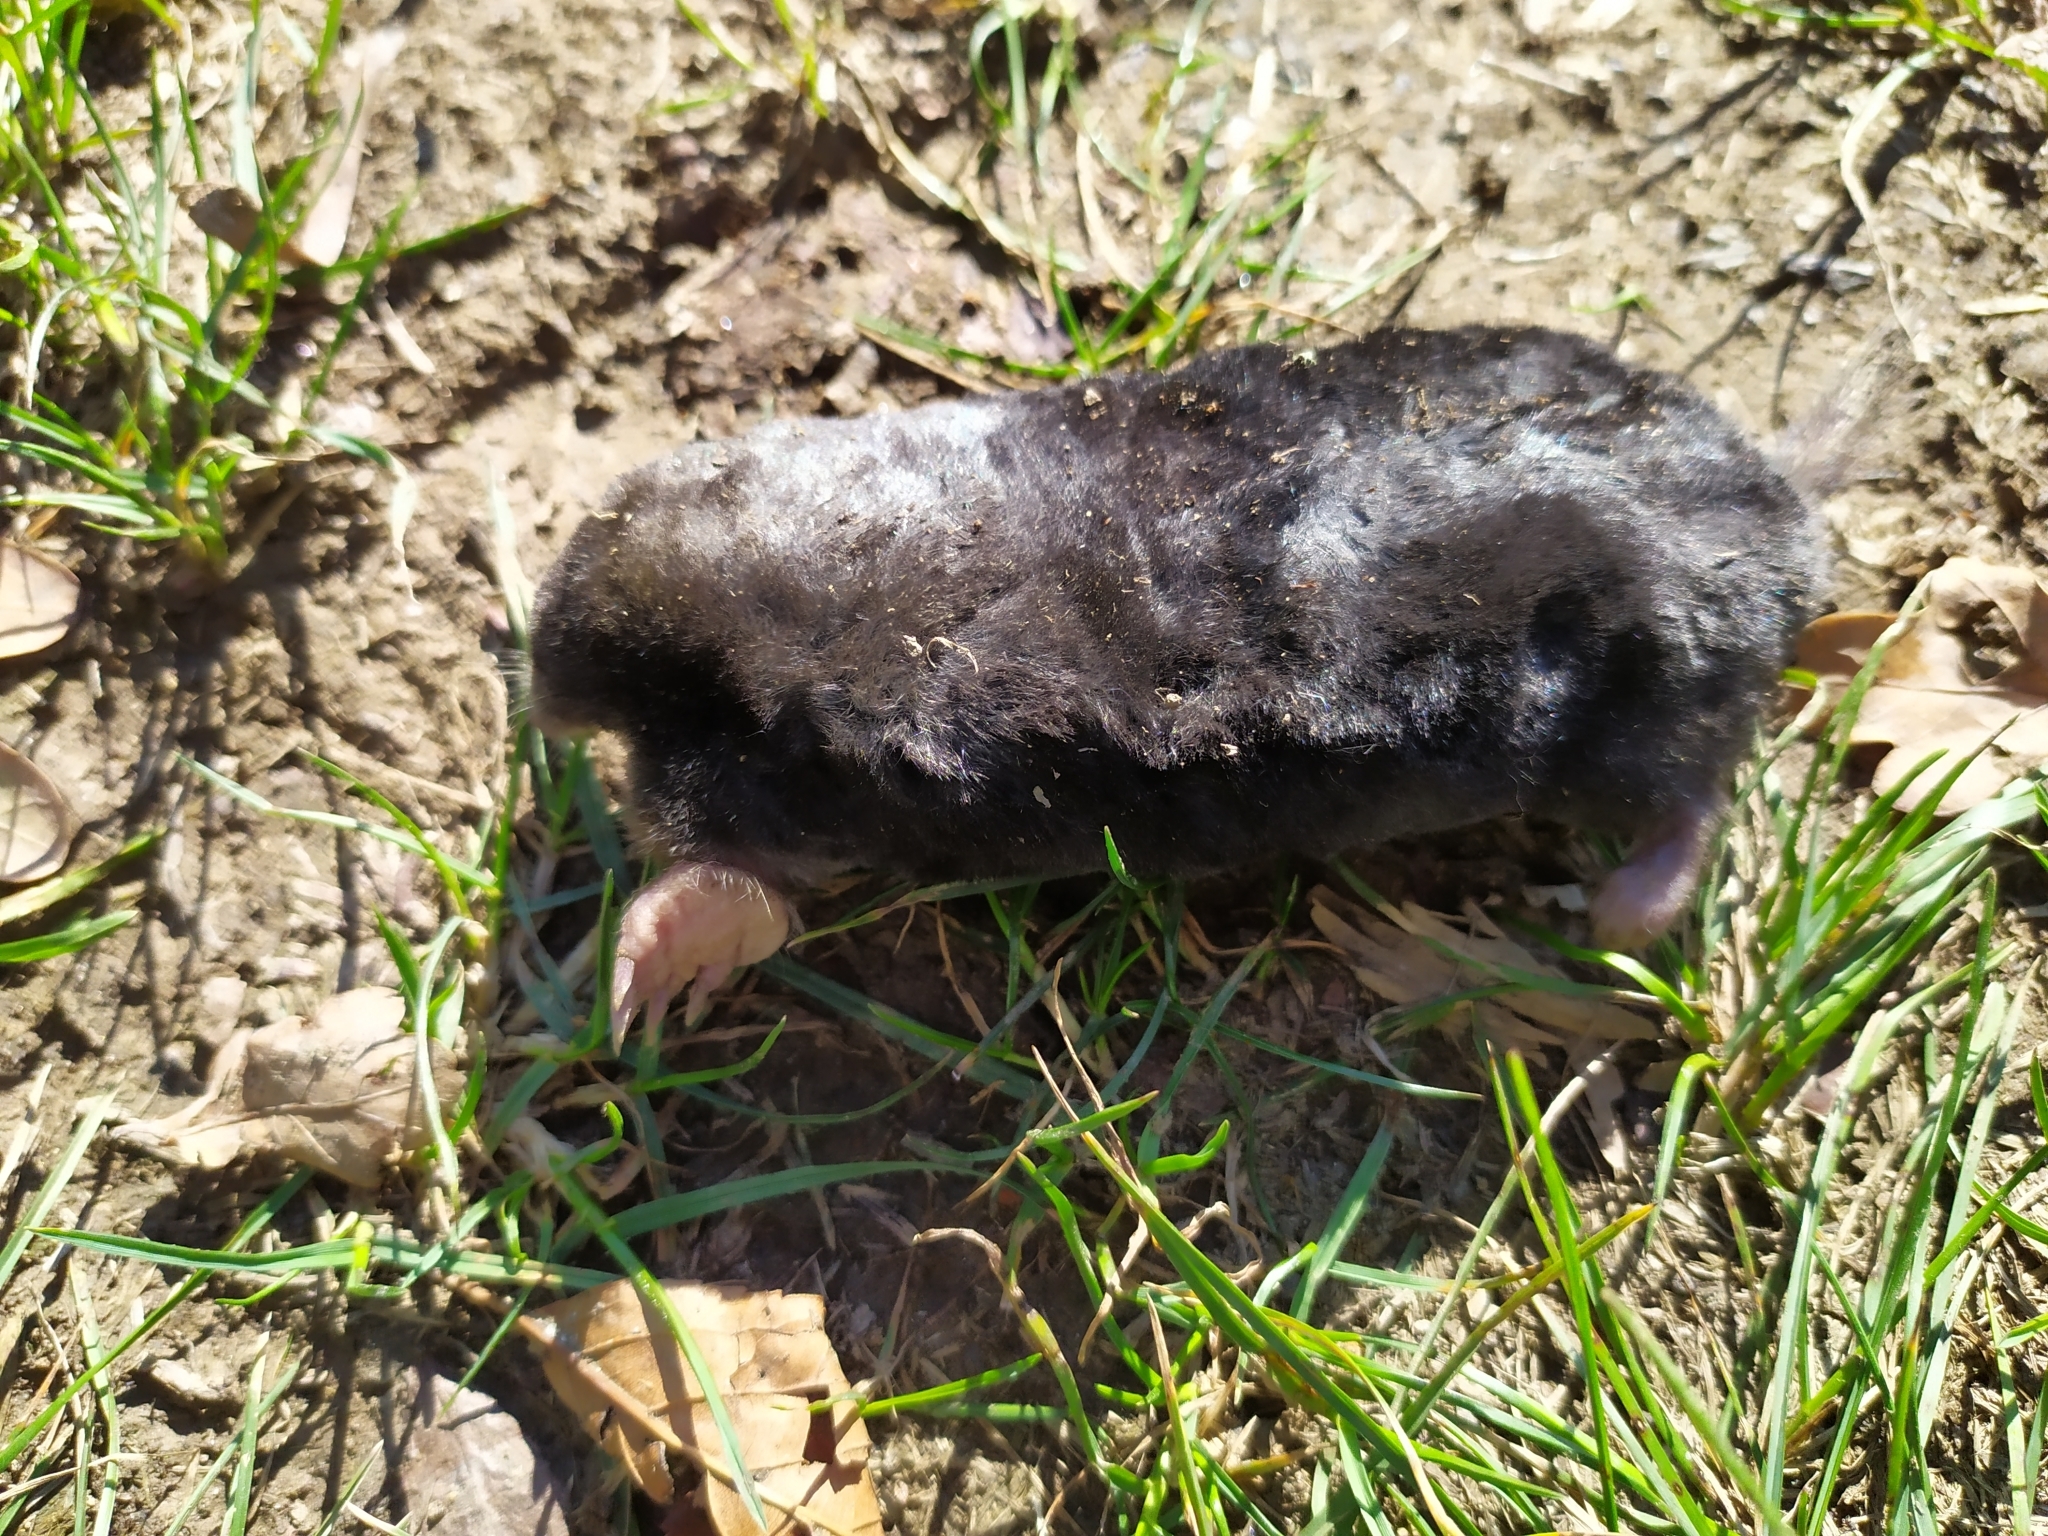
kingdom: Animalia
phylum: Chordata
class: Mammalia
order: Soricomorpha
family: Talpidae
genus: Talpa
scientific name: Talpa europaea
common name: European mole
